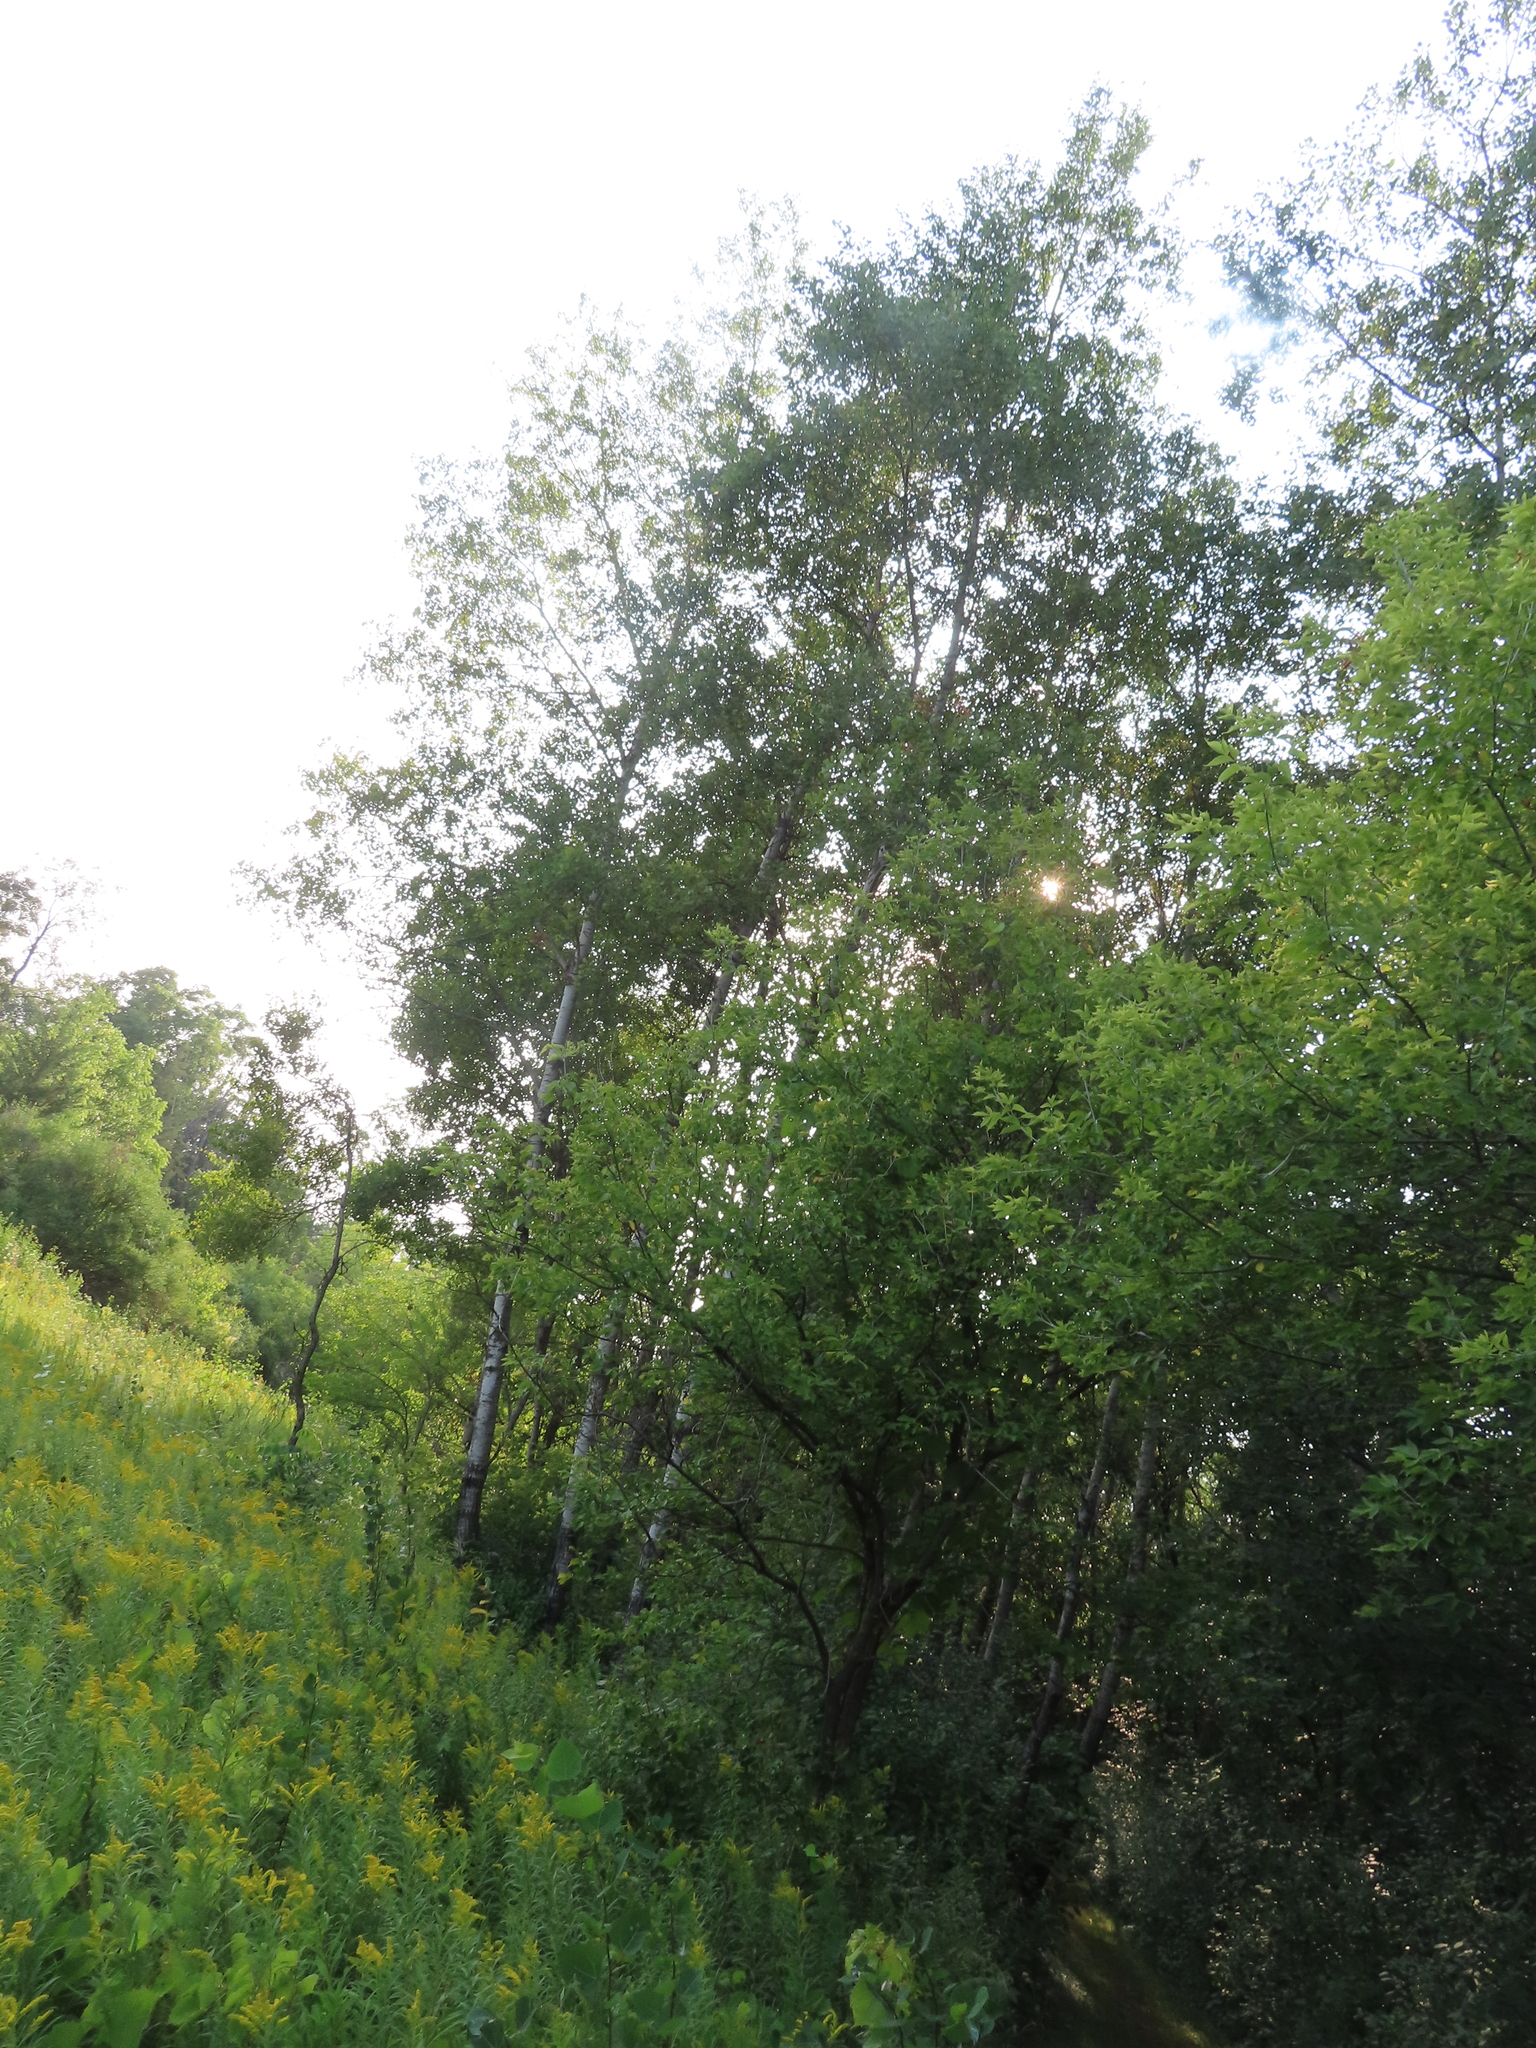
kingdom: Plantae
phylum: Tracheophyta
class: Magnoliopsida
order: Malpighiales
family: Salicaceae
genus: Populus
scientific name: Populus tremuloides
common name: Quaking aspen
